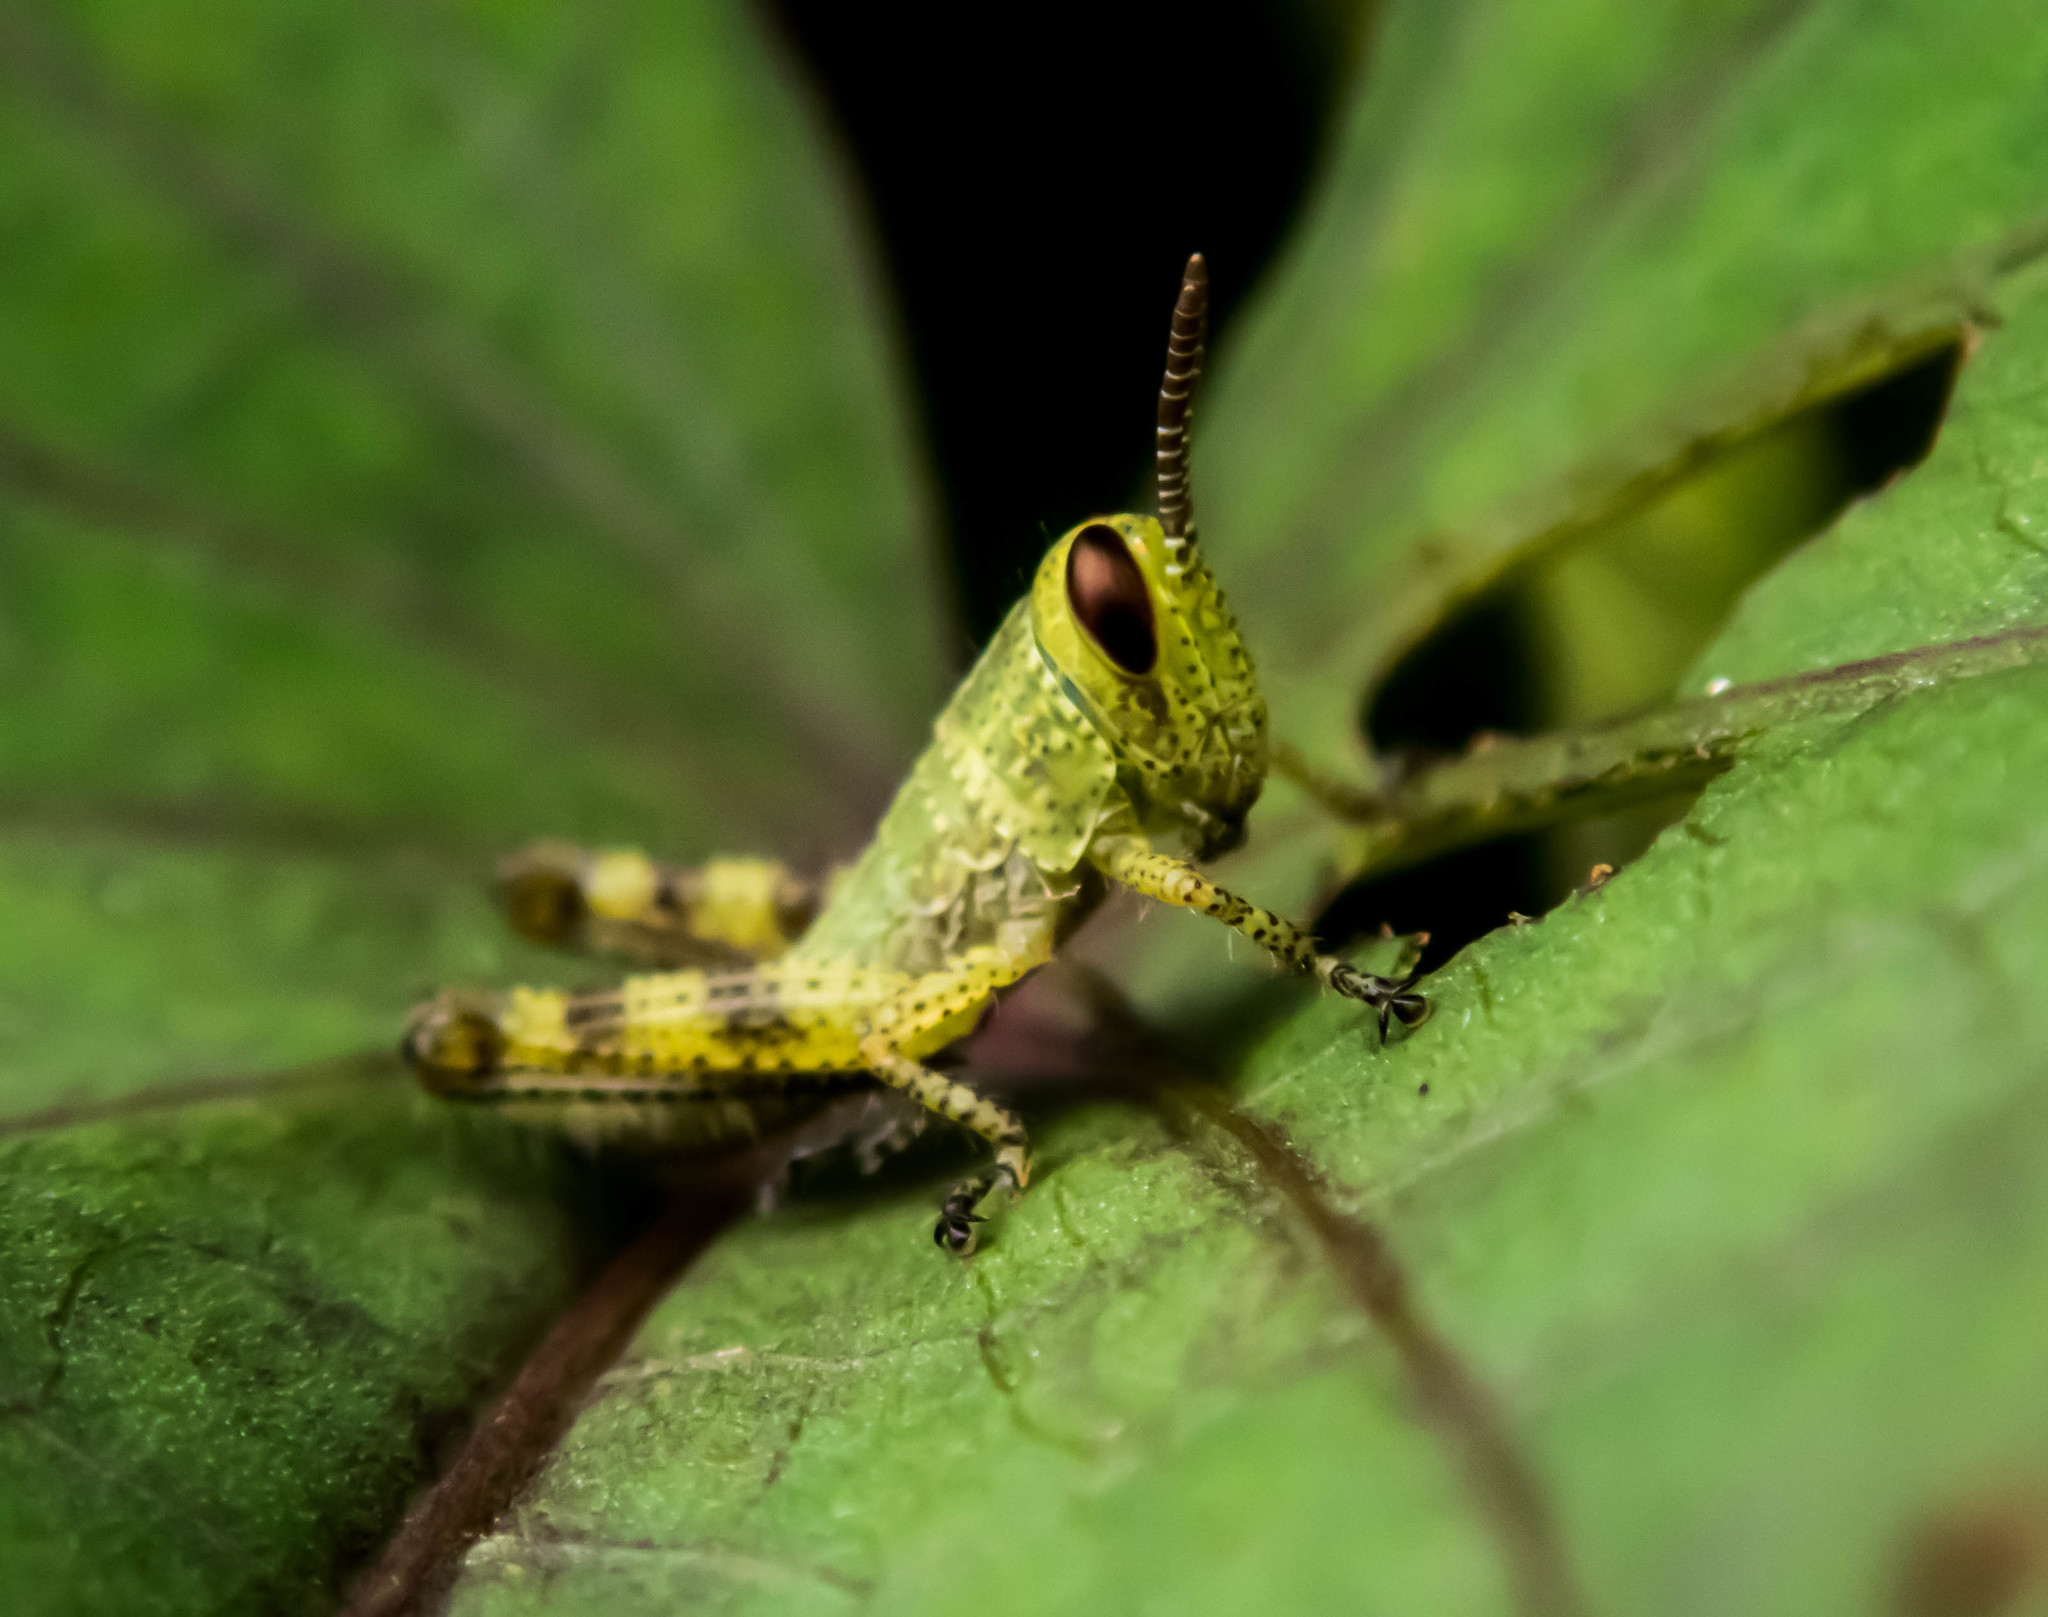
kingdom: Animalia
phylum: Arthropoda
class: Insecta
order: Orthoptera
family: Acrididae
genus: Valanga
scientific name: Valanga irregularis
